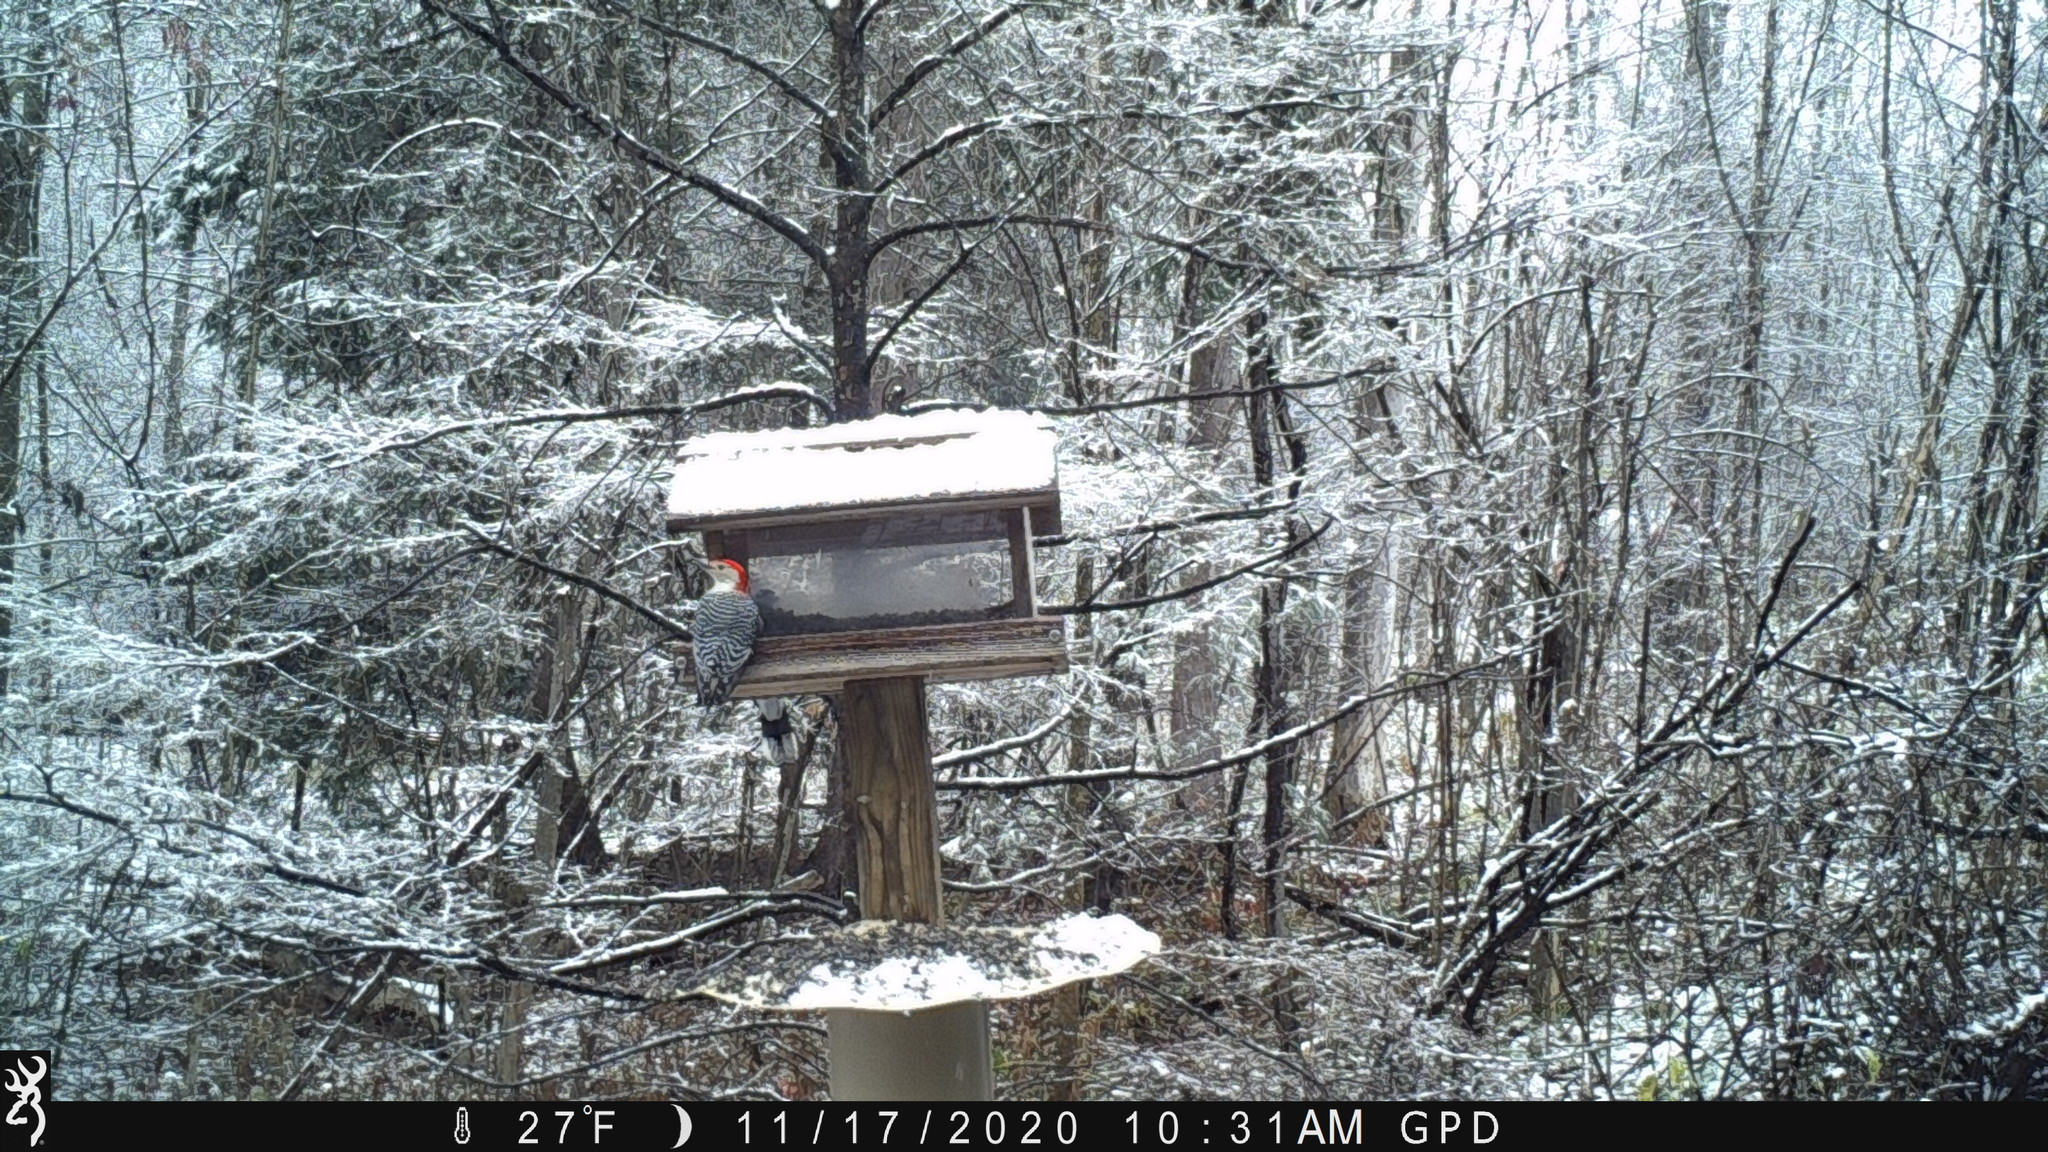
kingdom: Animalia
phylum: Chordata
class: Aves
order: Piciformes
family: Picidae
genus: Melanerpes
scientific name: Melanerpes carolinus
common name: Red-bellied woodpecker
